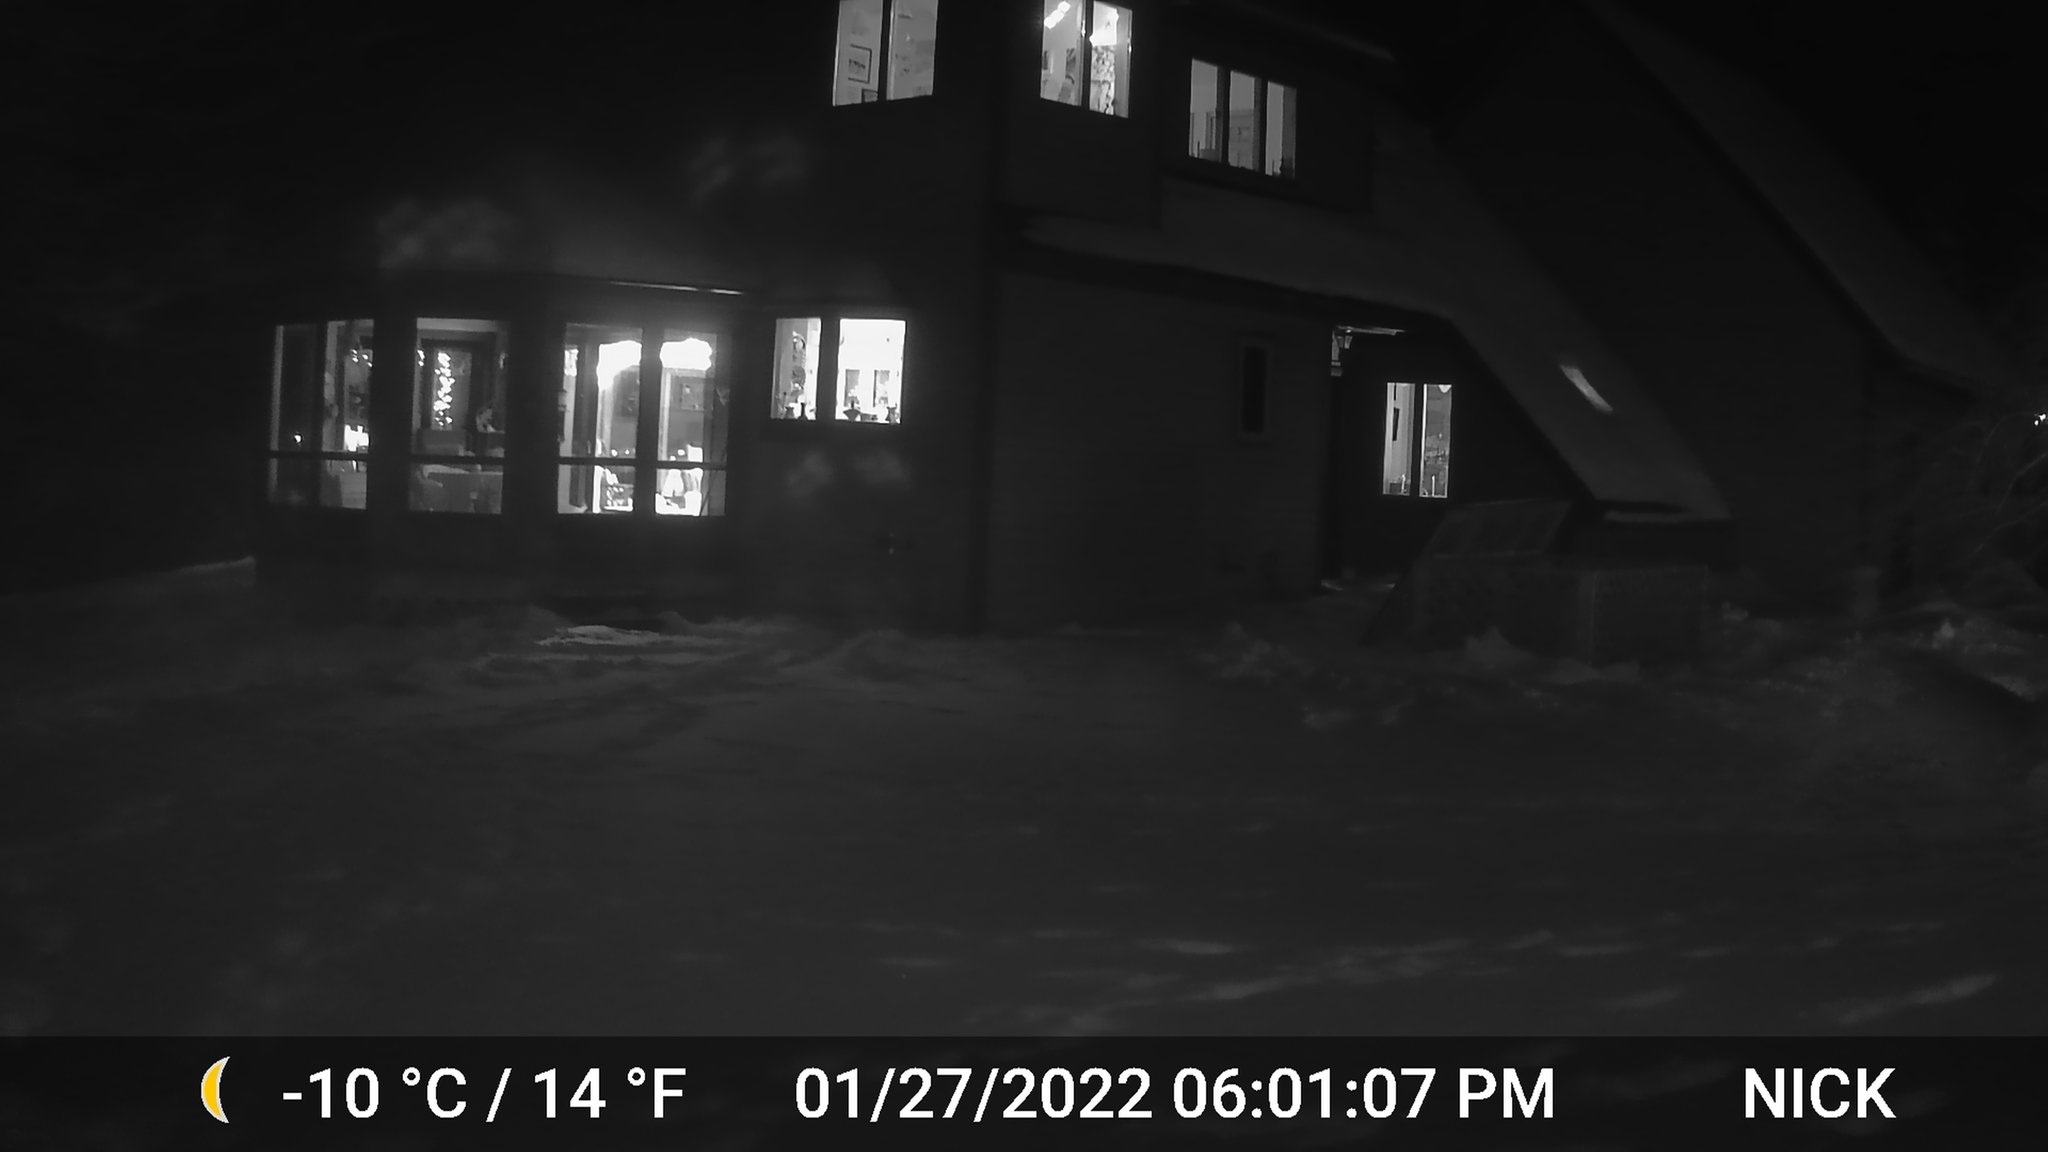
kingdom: Animalia
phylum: Chordata
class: Mammalia
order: Artiodactyla
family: Cervidae
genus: Odocoileus
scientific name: Odocoileus virginianus
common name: White-tailed deer
